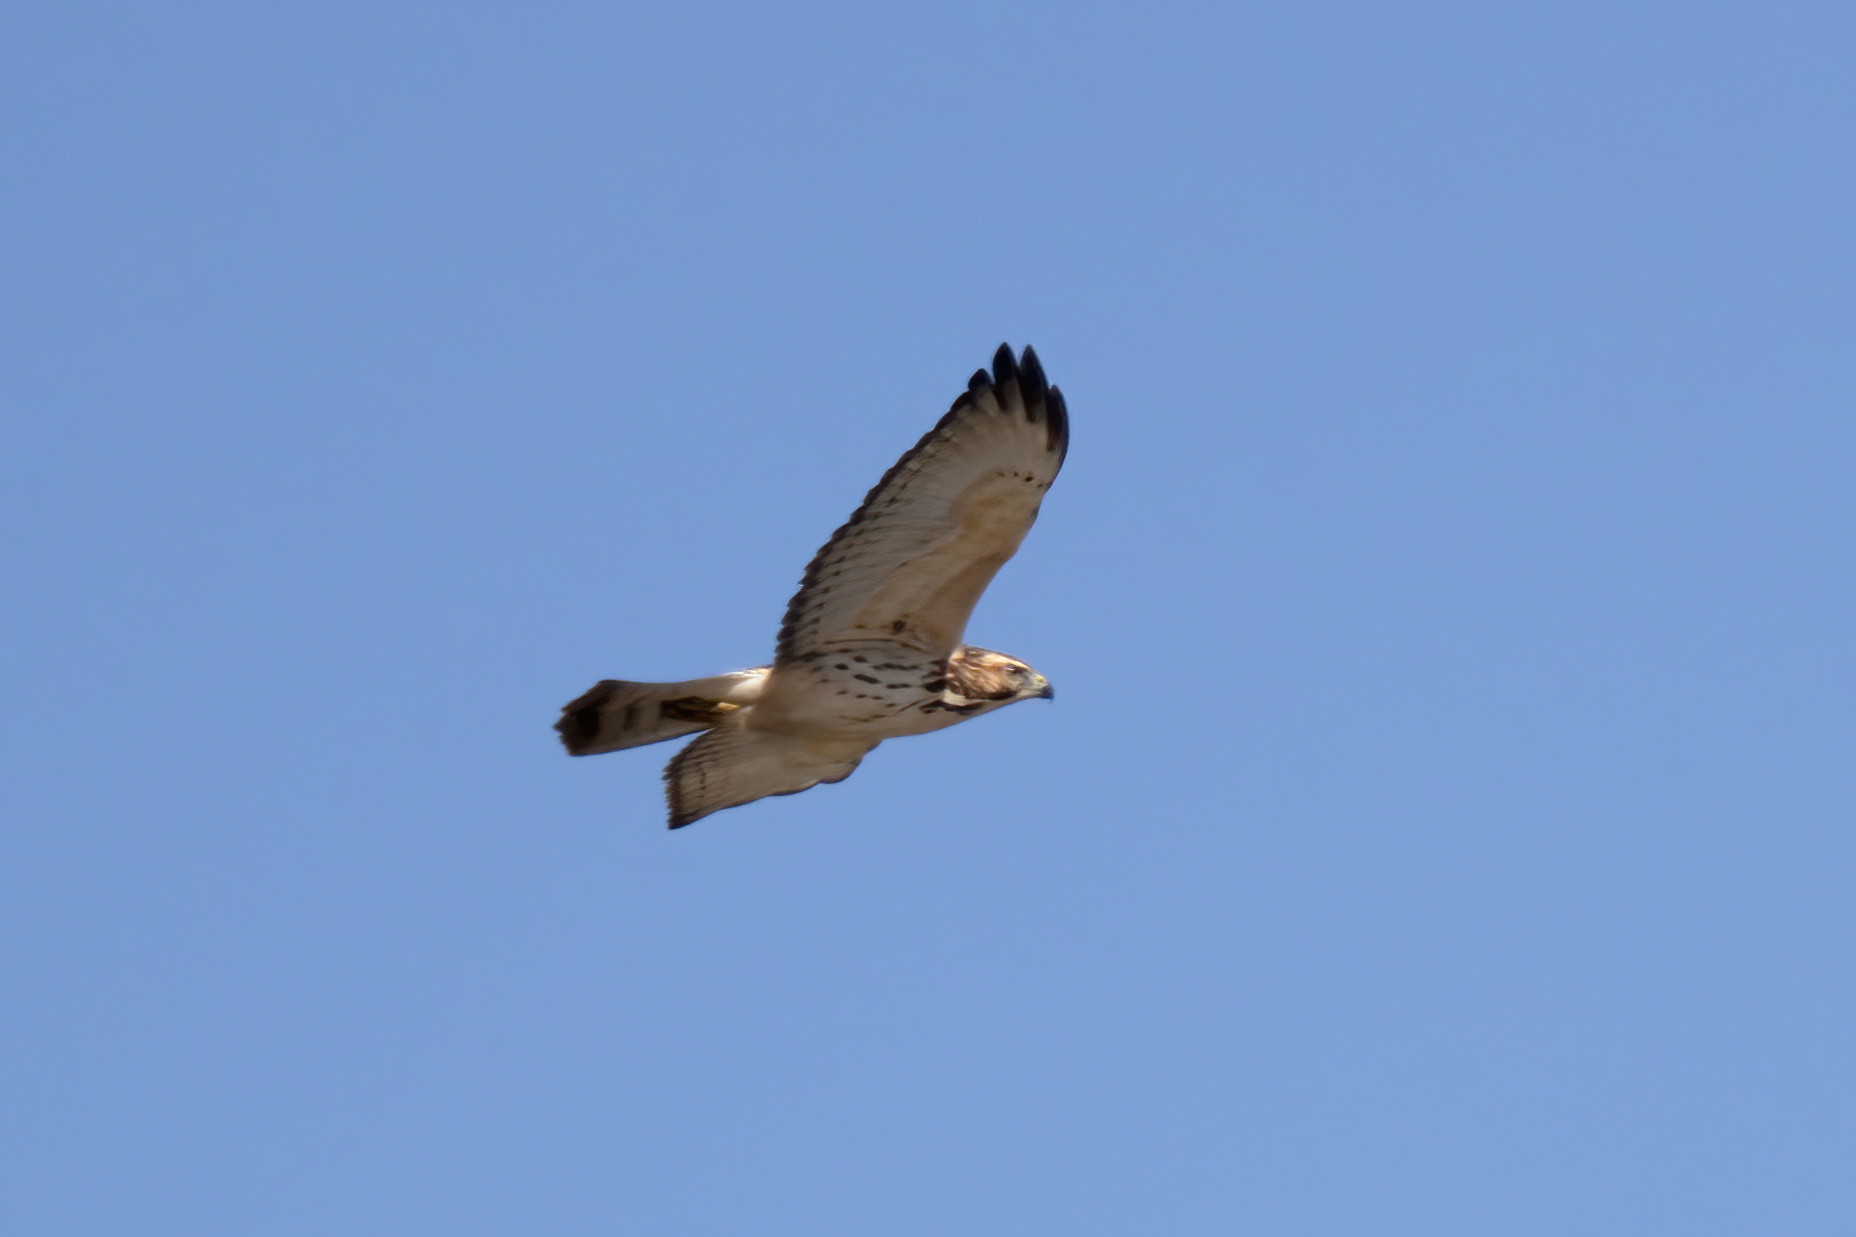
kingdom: Animalia
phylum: Chordata
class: Aves
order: Accipitriformes
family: Accipitridae
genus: Buteo
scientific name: Buteo platypterus
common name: Broad-winged hawk
